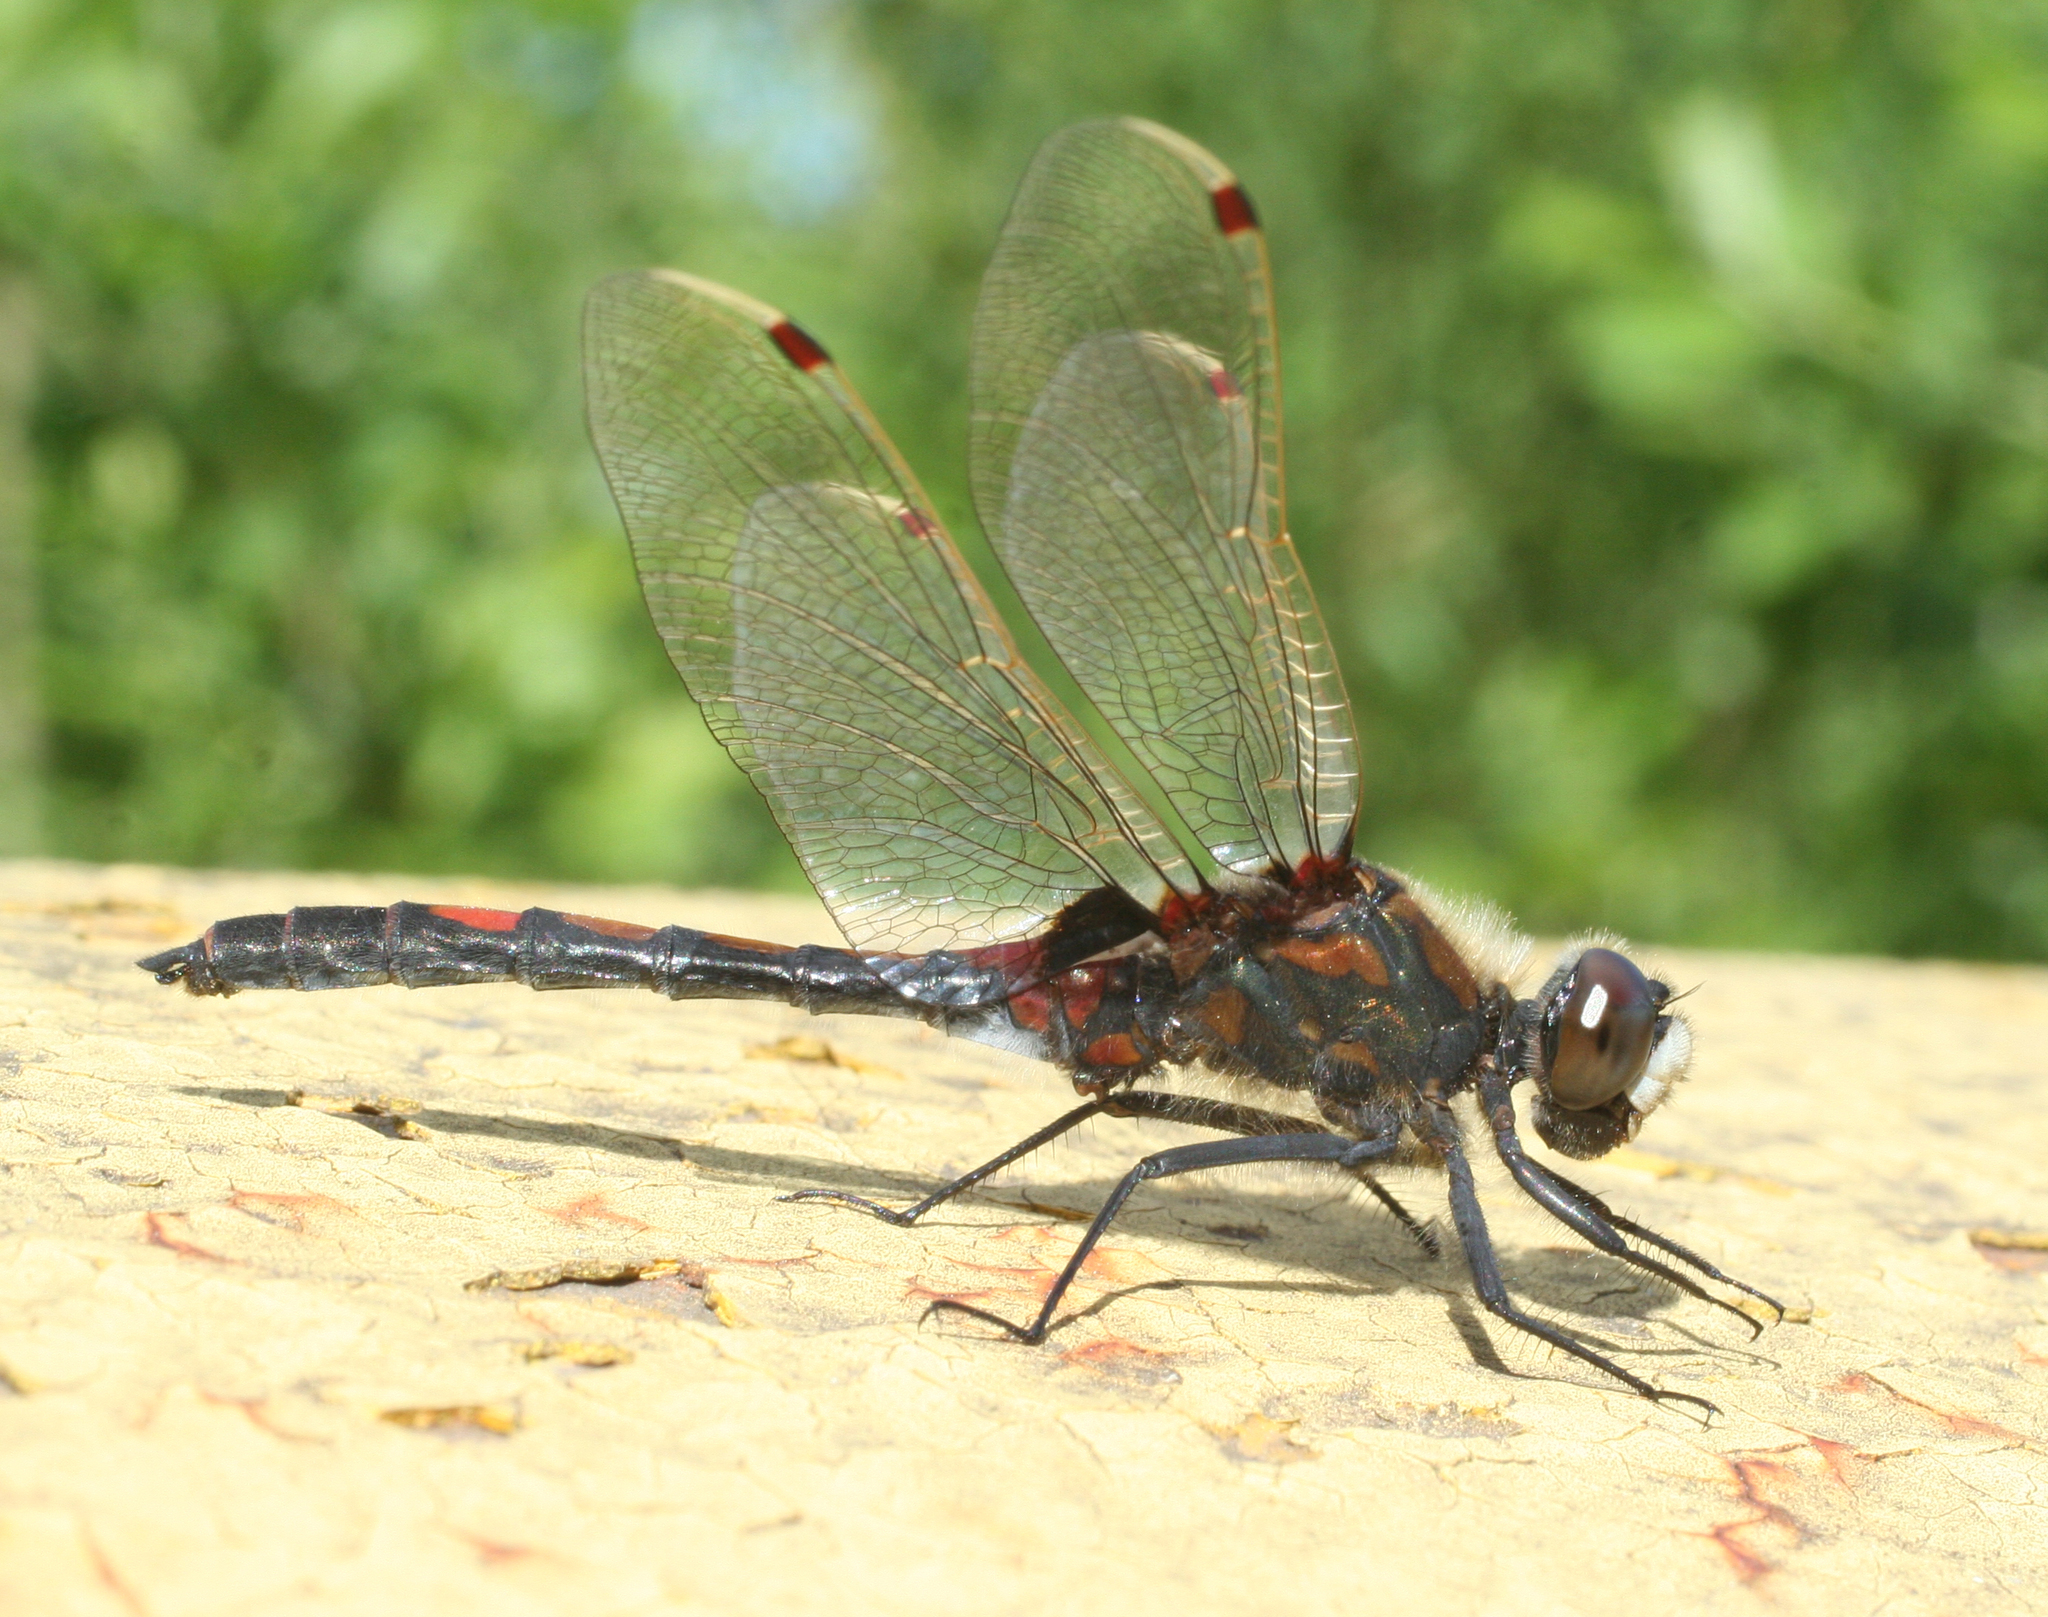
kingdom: Animalia
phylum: Arthropoda
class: Insecta
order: Odonata
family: Libellulidae
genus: Leucorrhinia
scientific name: Leucorrhinia rubicunda
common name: Ruby whiteface
